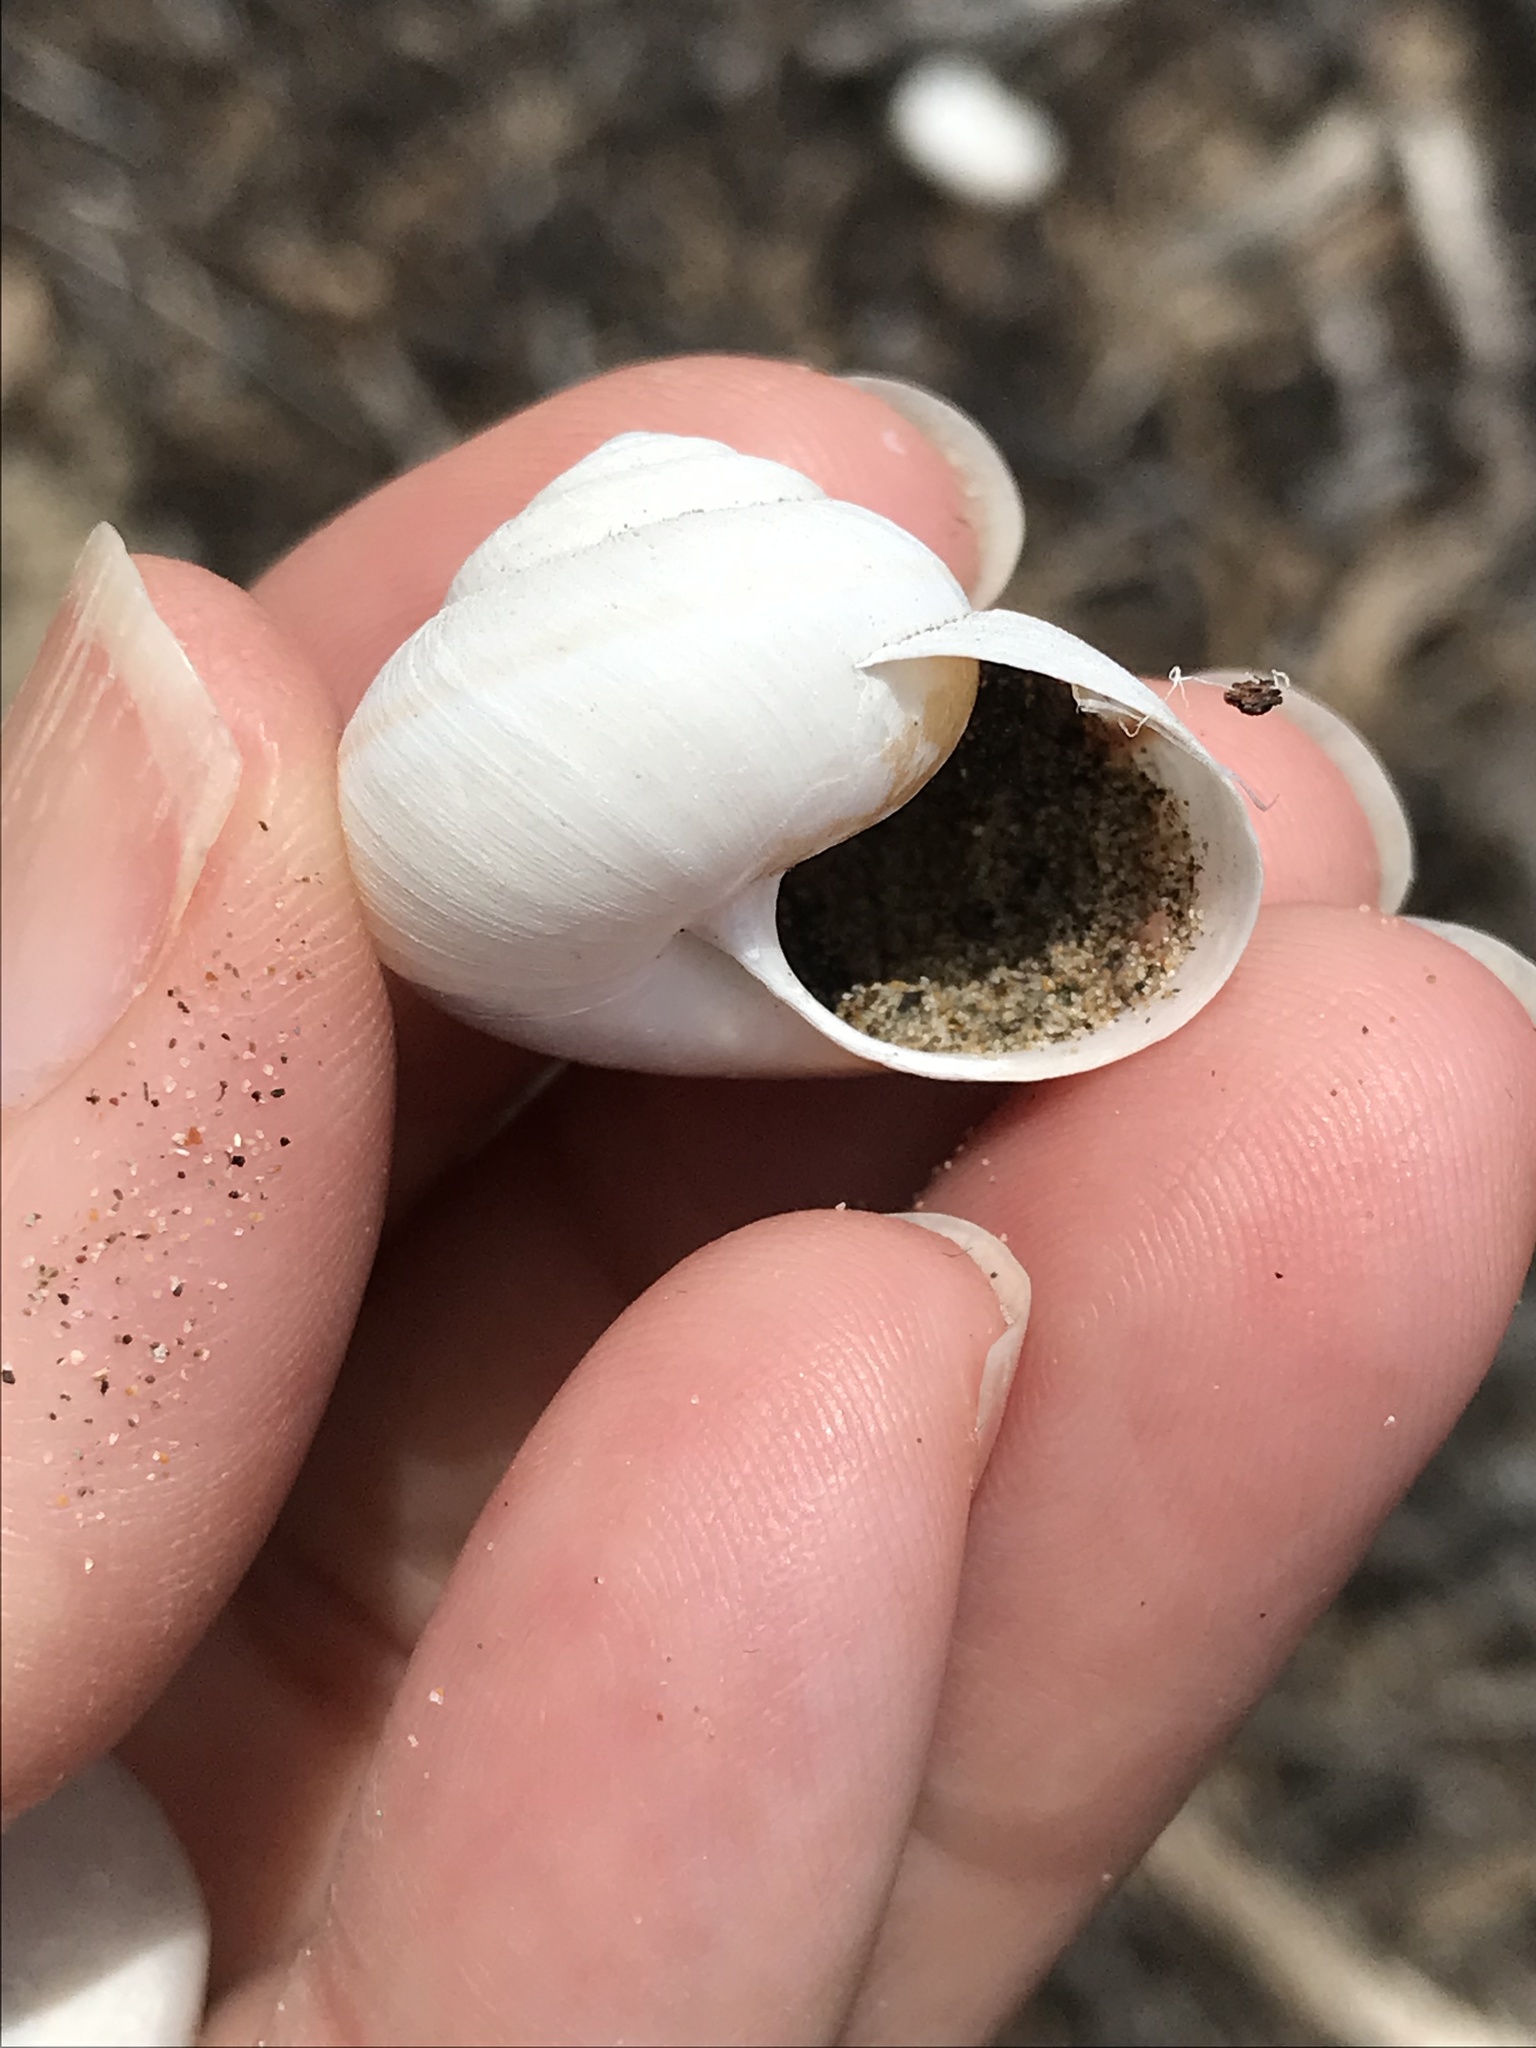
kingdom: Animalia
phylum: Mollusca
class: Gastropoda
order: Stylommatophora
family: Xanthonychidae
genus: Helminthoglypta
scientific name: Helminthoglypta walkeriana
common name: Banded dune snail
